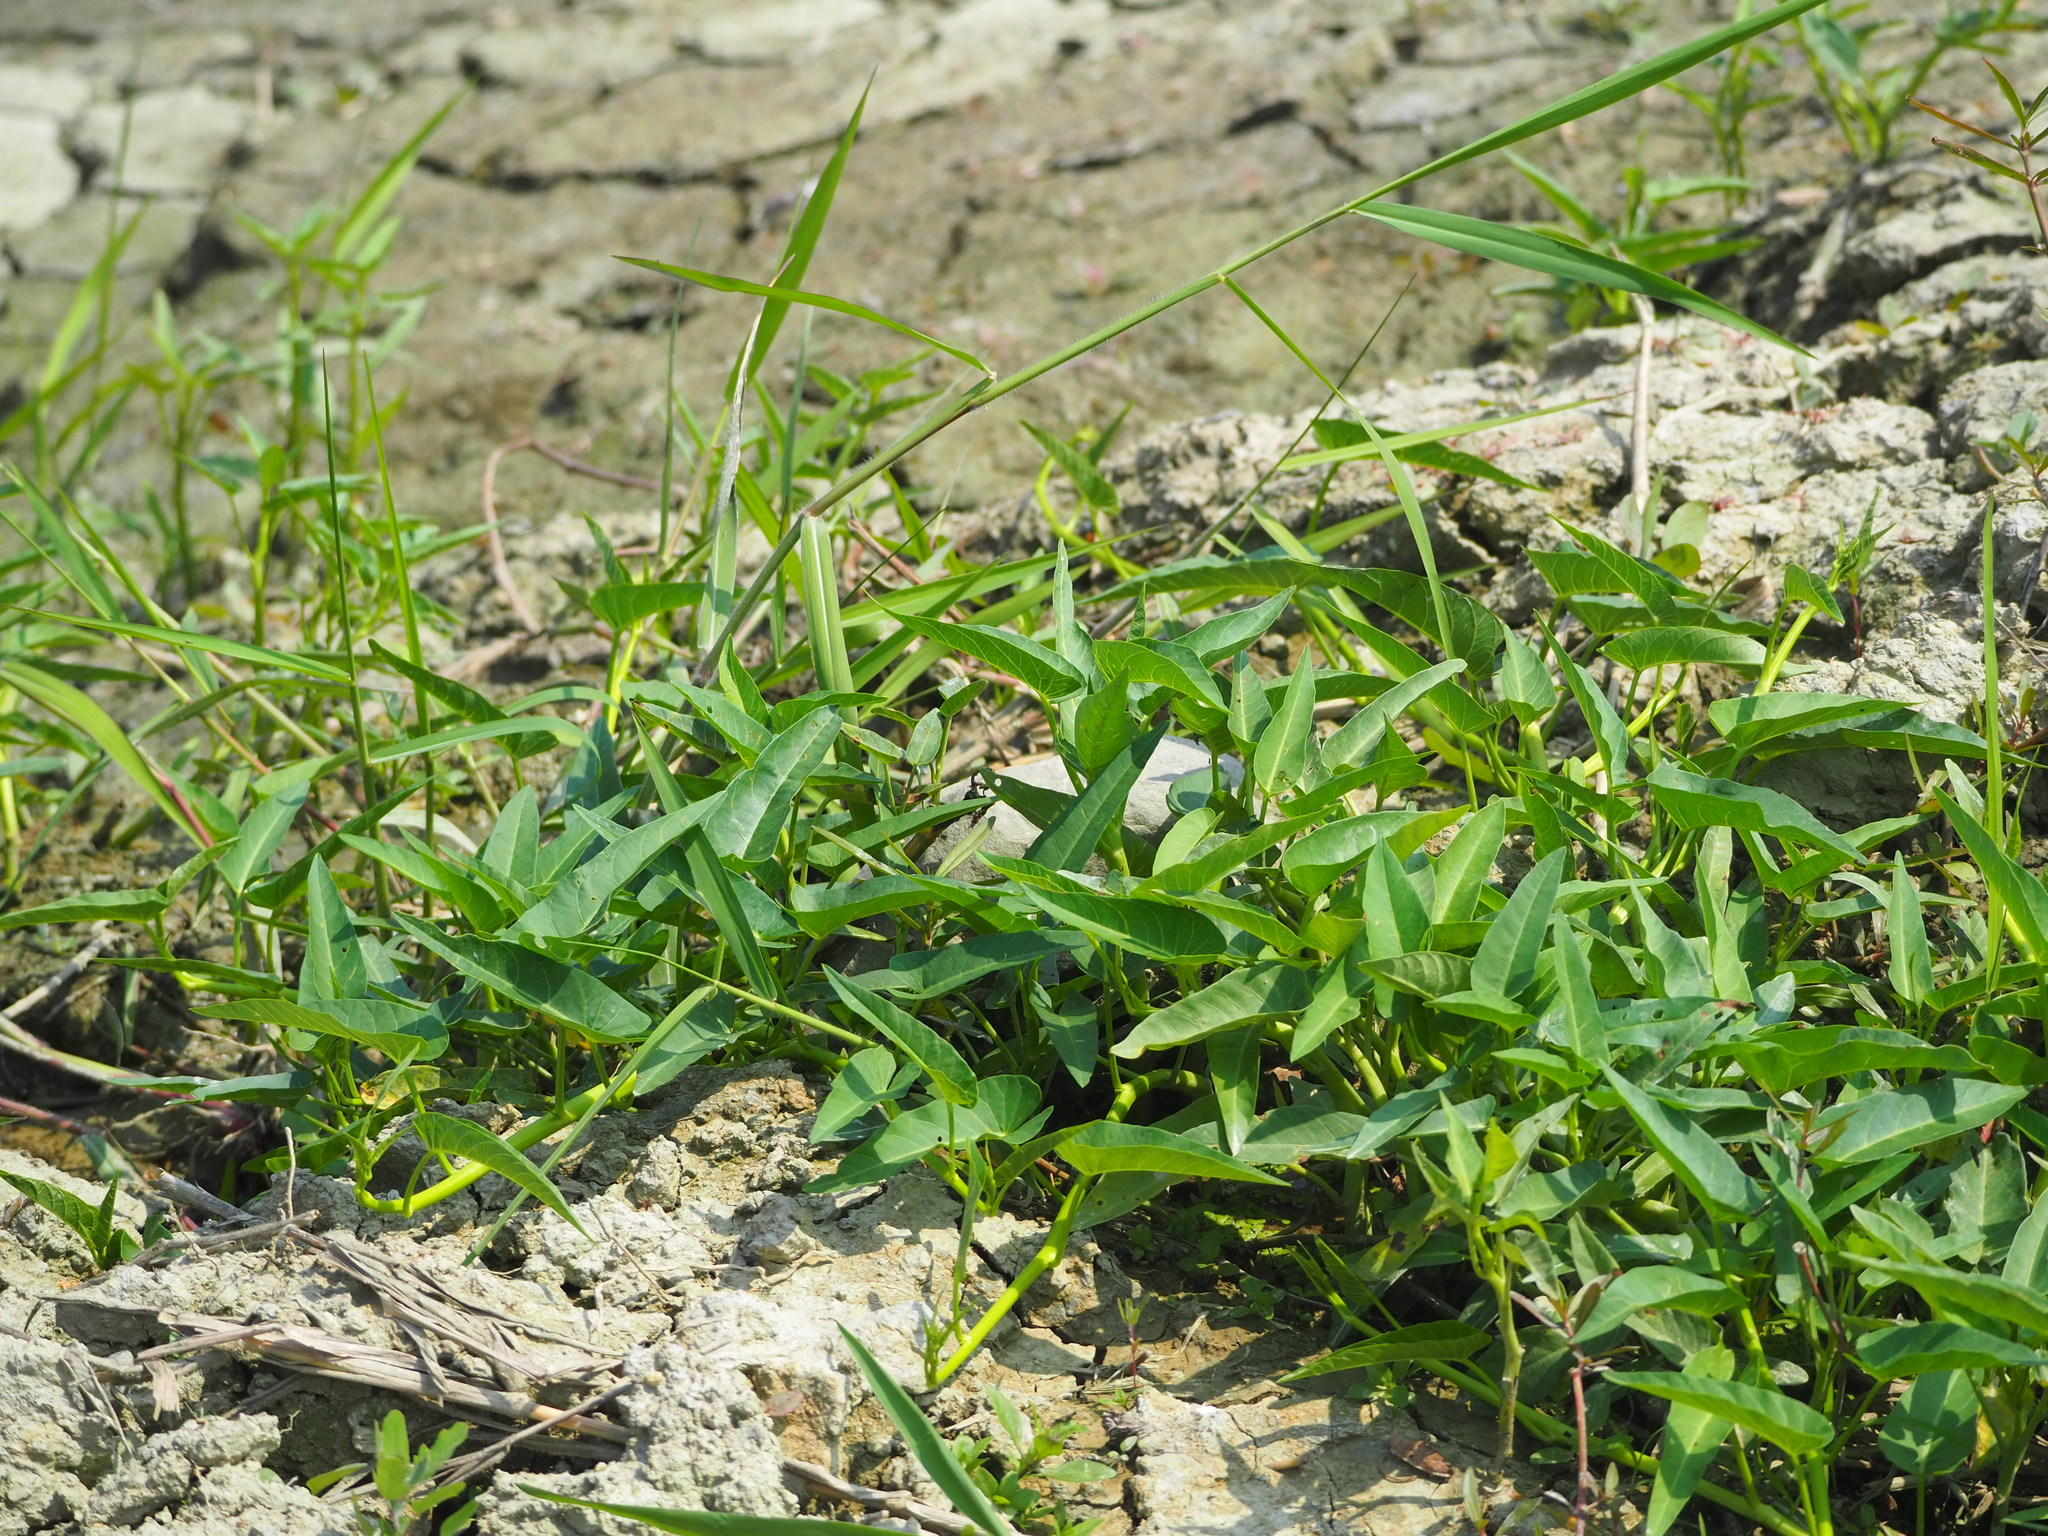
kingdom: Plantae
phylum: Tracheophyta
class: Magnoliopsida
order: Solanales
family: Convolvulaceae
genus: Ipomoea
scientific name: Ipomoea aquatica
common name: Swamp morning-glory
